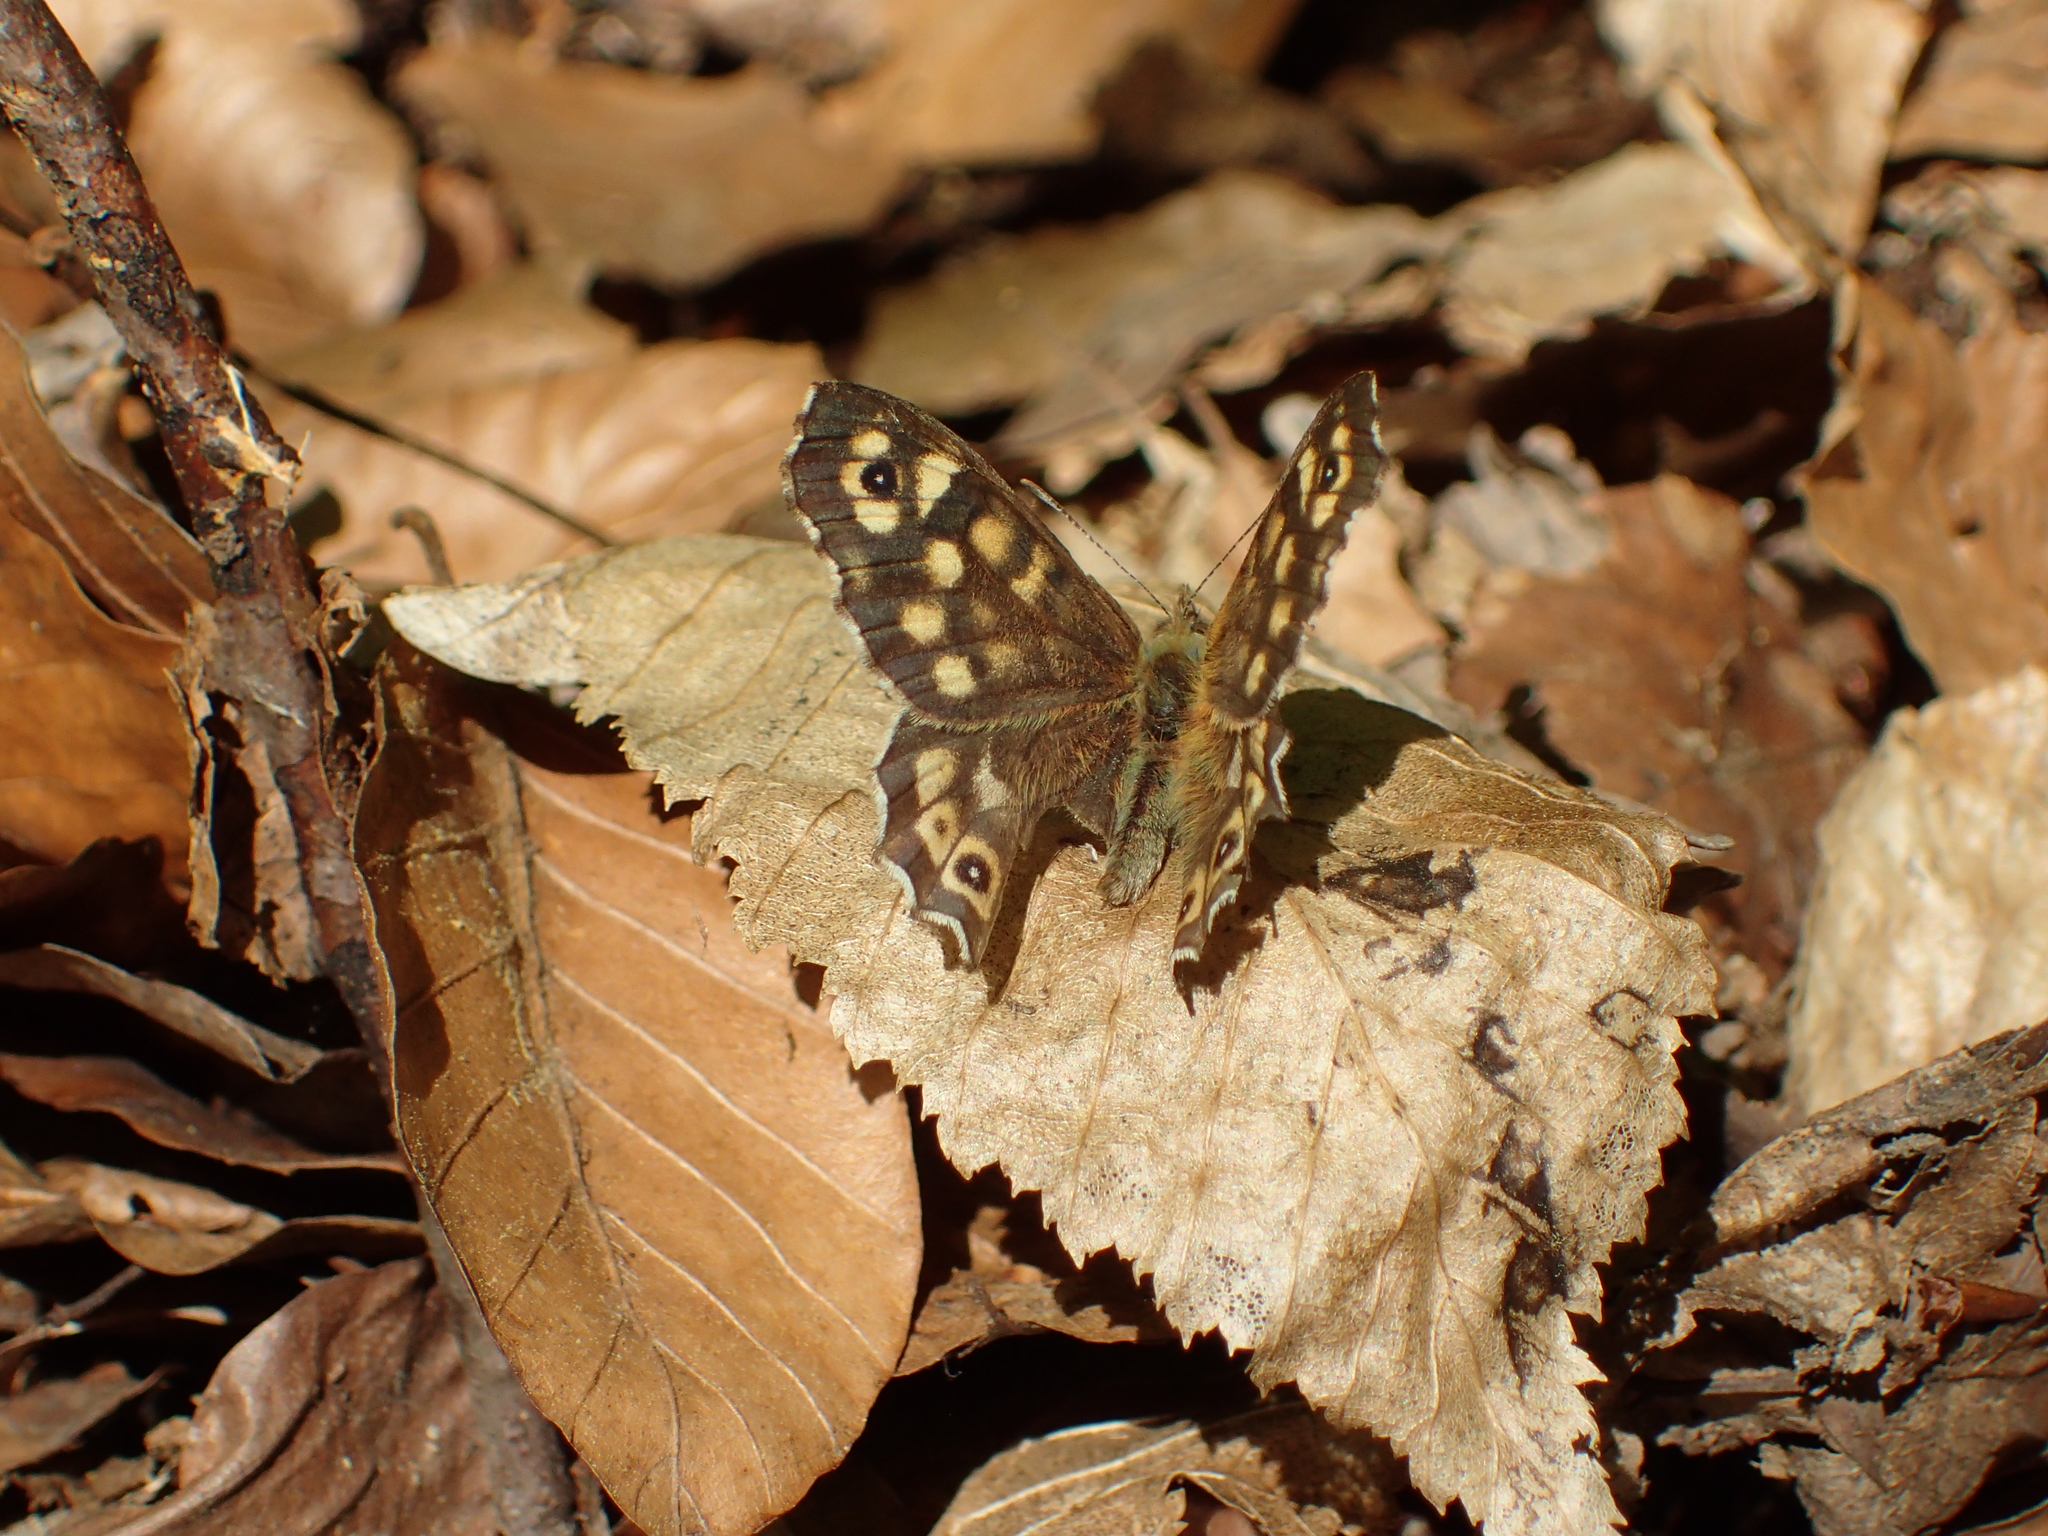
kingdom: Animalia
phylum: Arthropoda
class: Insecta
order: Lepidoptera
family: Nymphalidae
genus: Pararge
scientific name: Pararge aegeria
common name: Speckled wood
